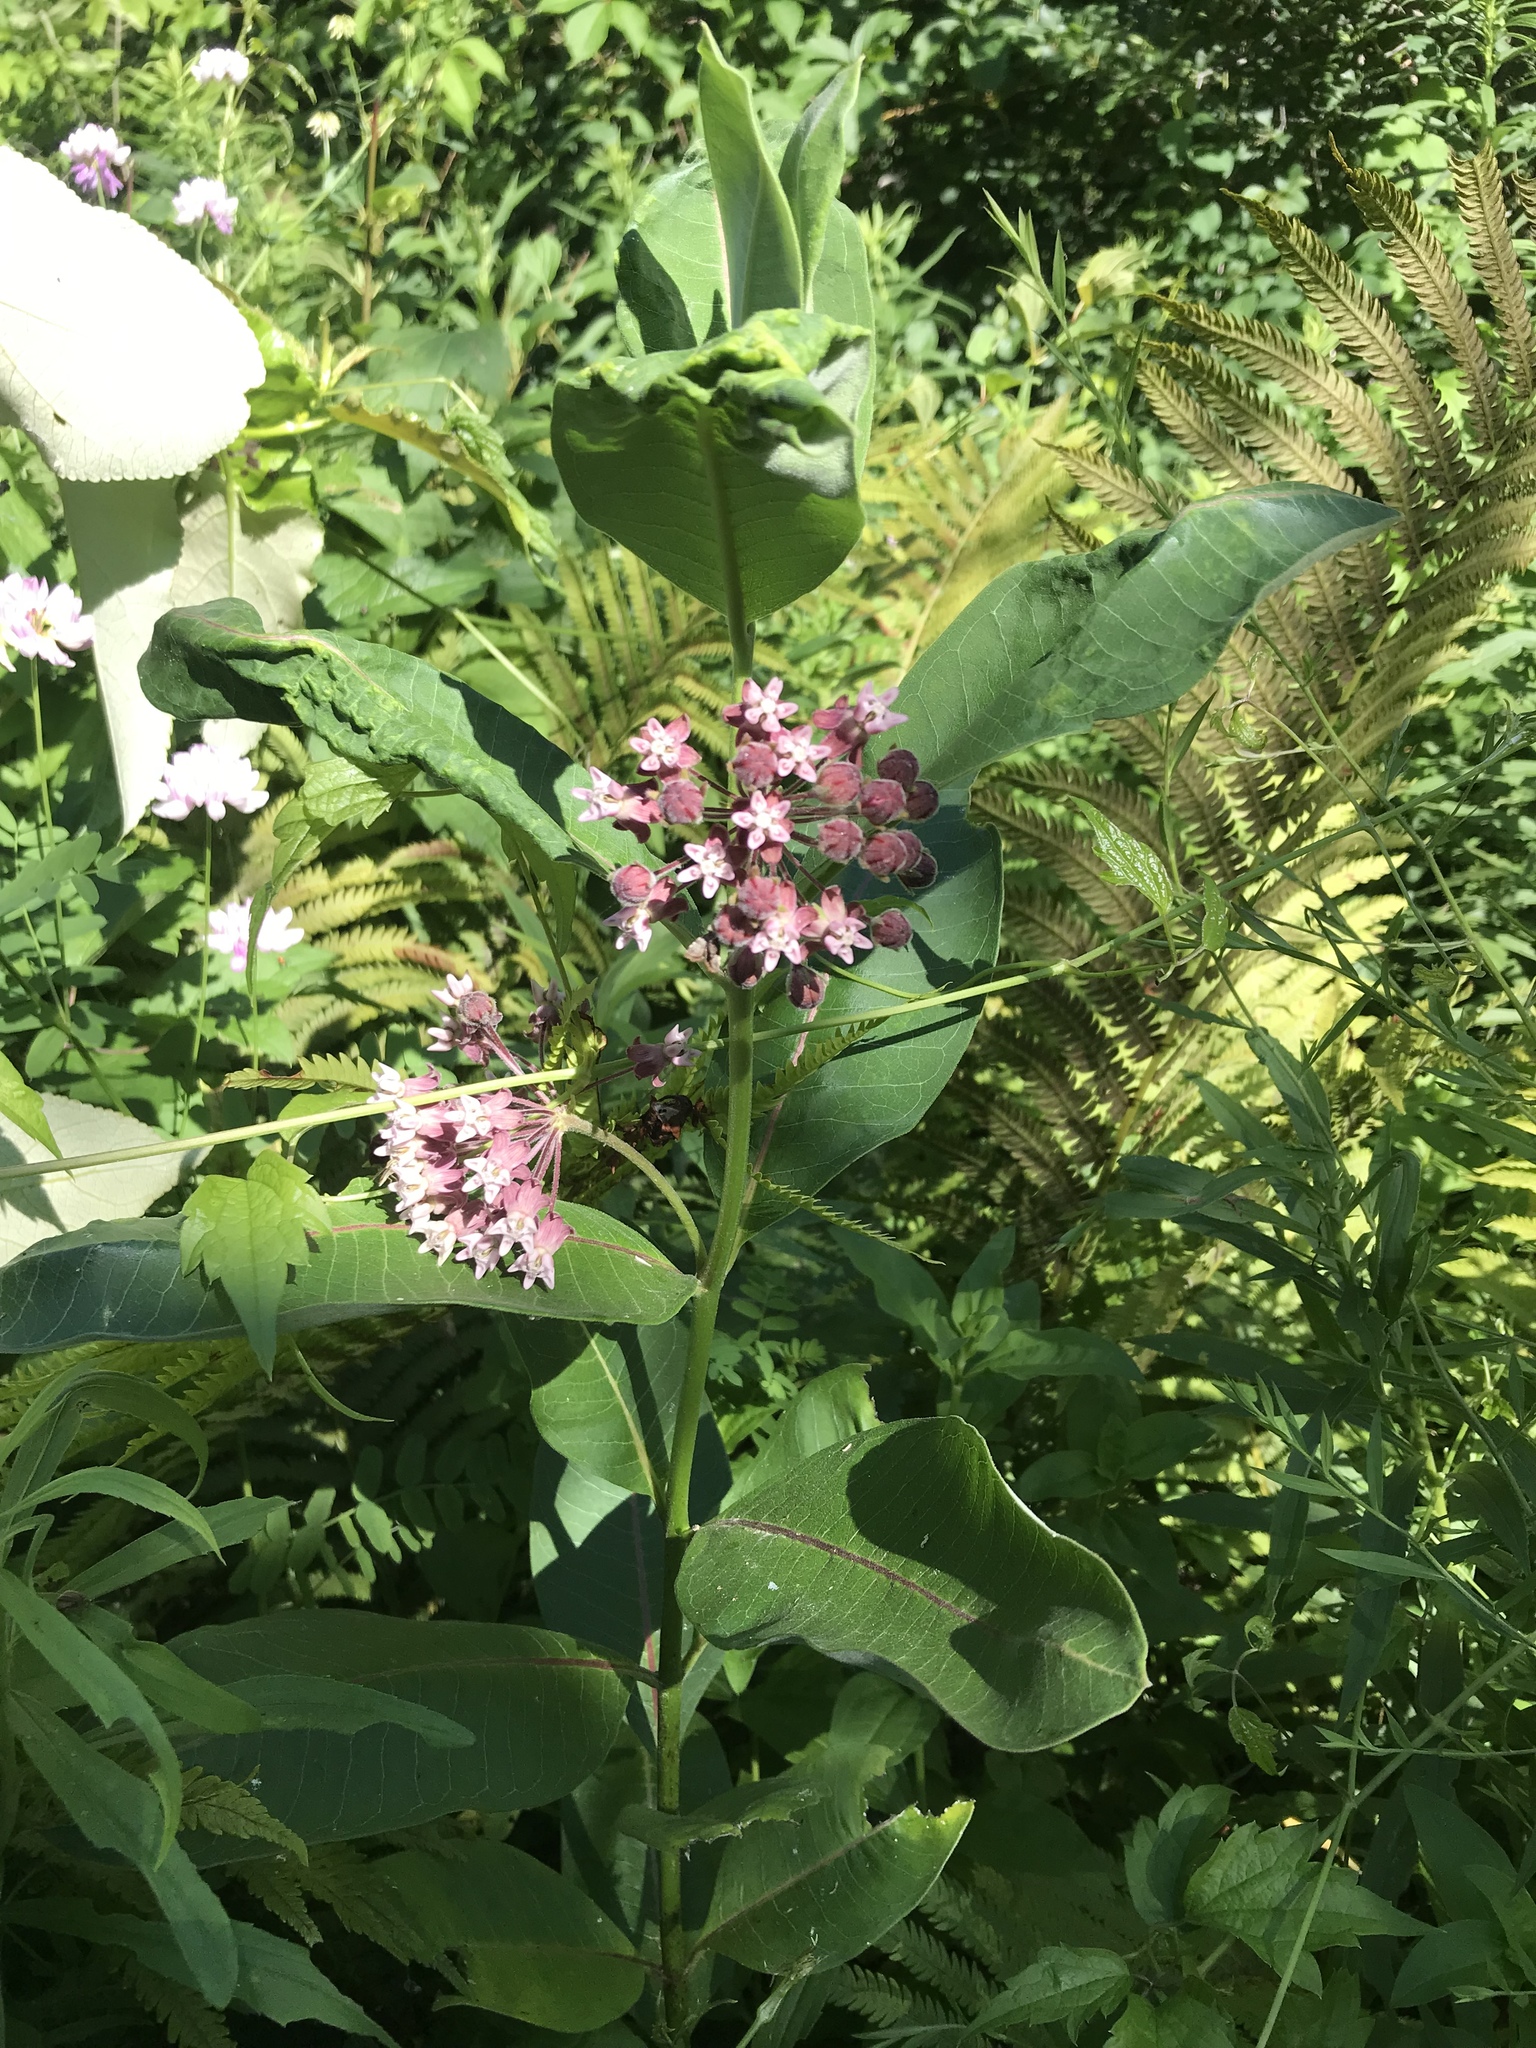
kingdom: Plantae
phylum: Tracheophyta
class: Magnoliopsida
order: Gentianales
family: Apocynaceae
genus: Asclepias
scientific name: Asclepias syriaca
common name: Common milkweed
